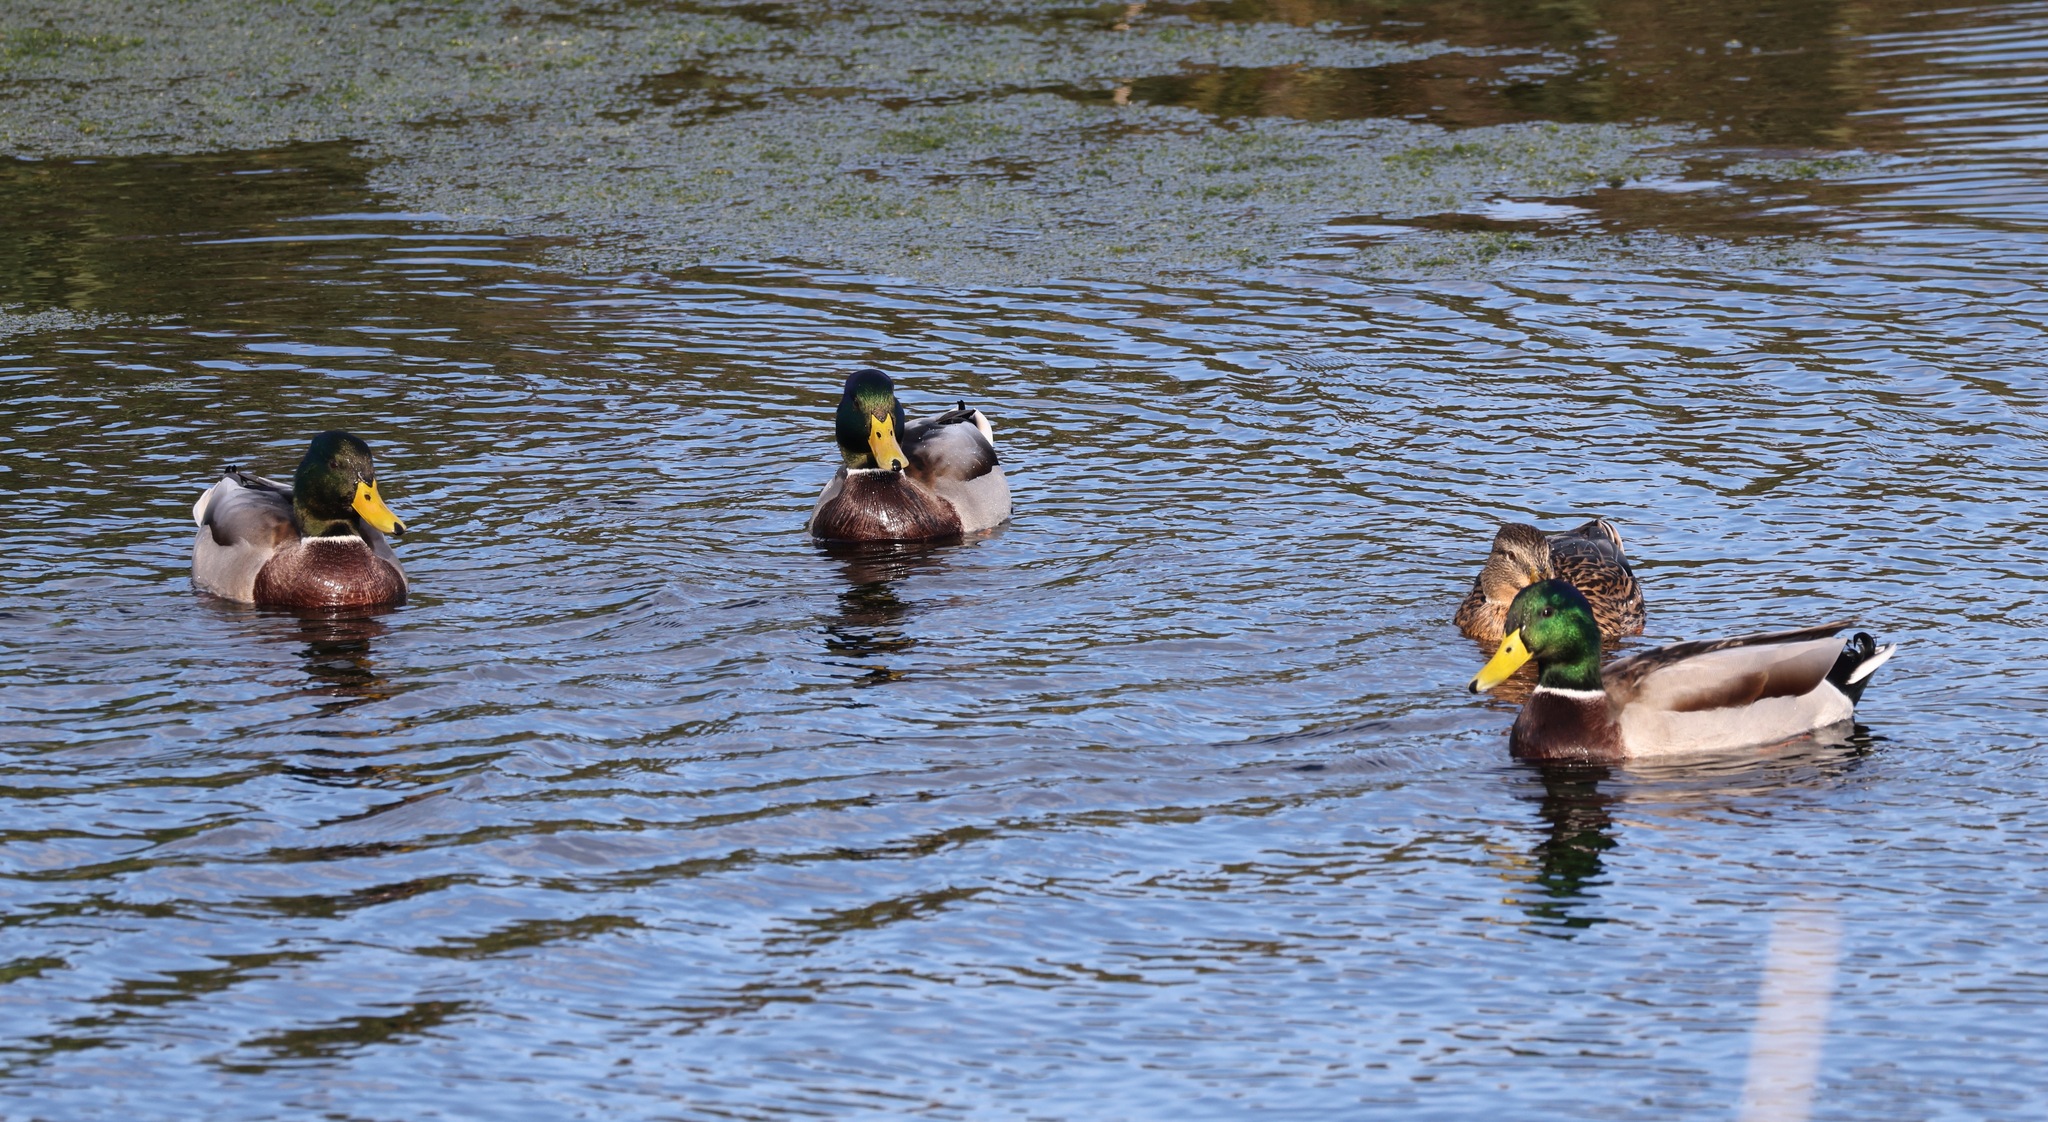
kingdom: Animalia
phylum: Chordata
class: Aves
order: Anseriformes
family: Anatidae
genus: Anas
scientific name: Anas platyrhynchos
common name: Mallard
